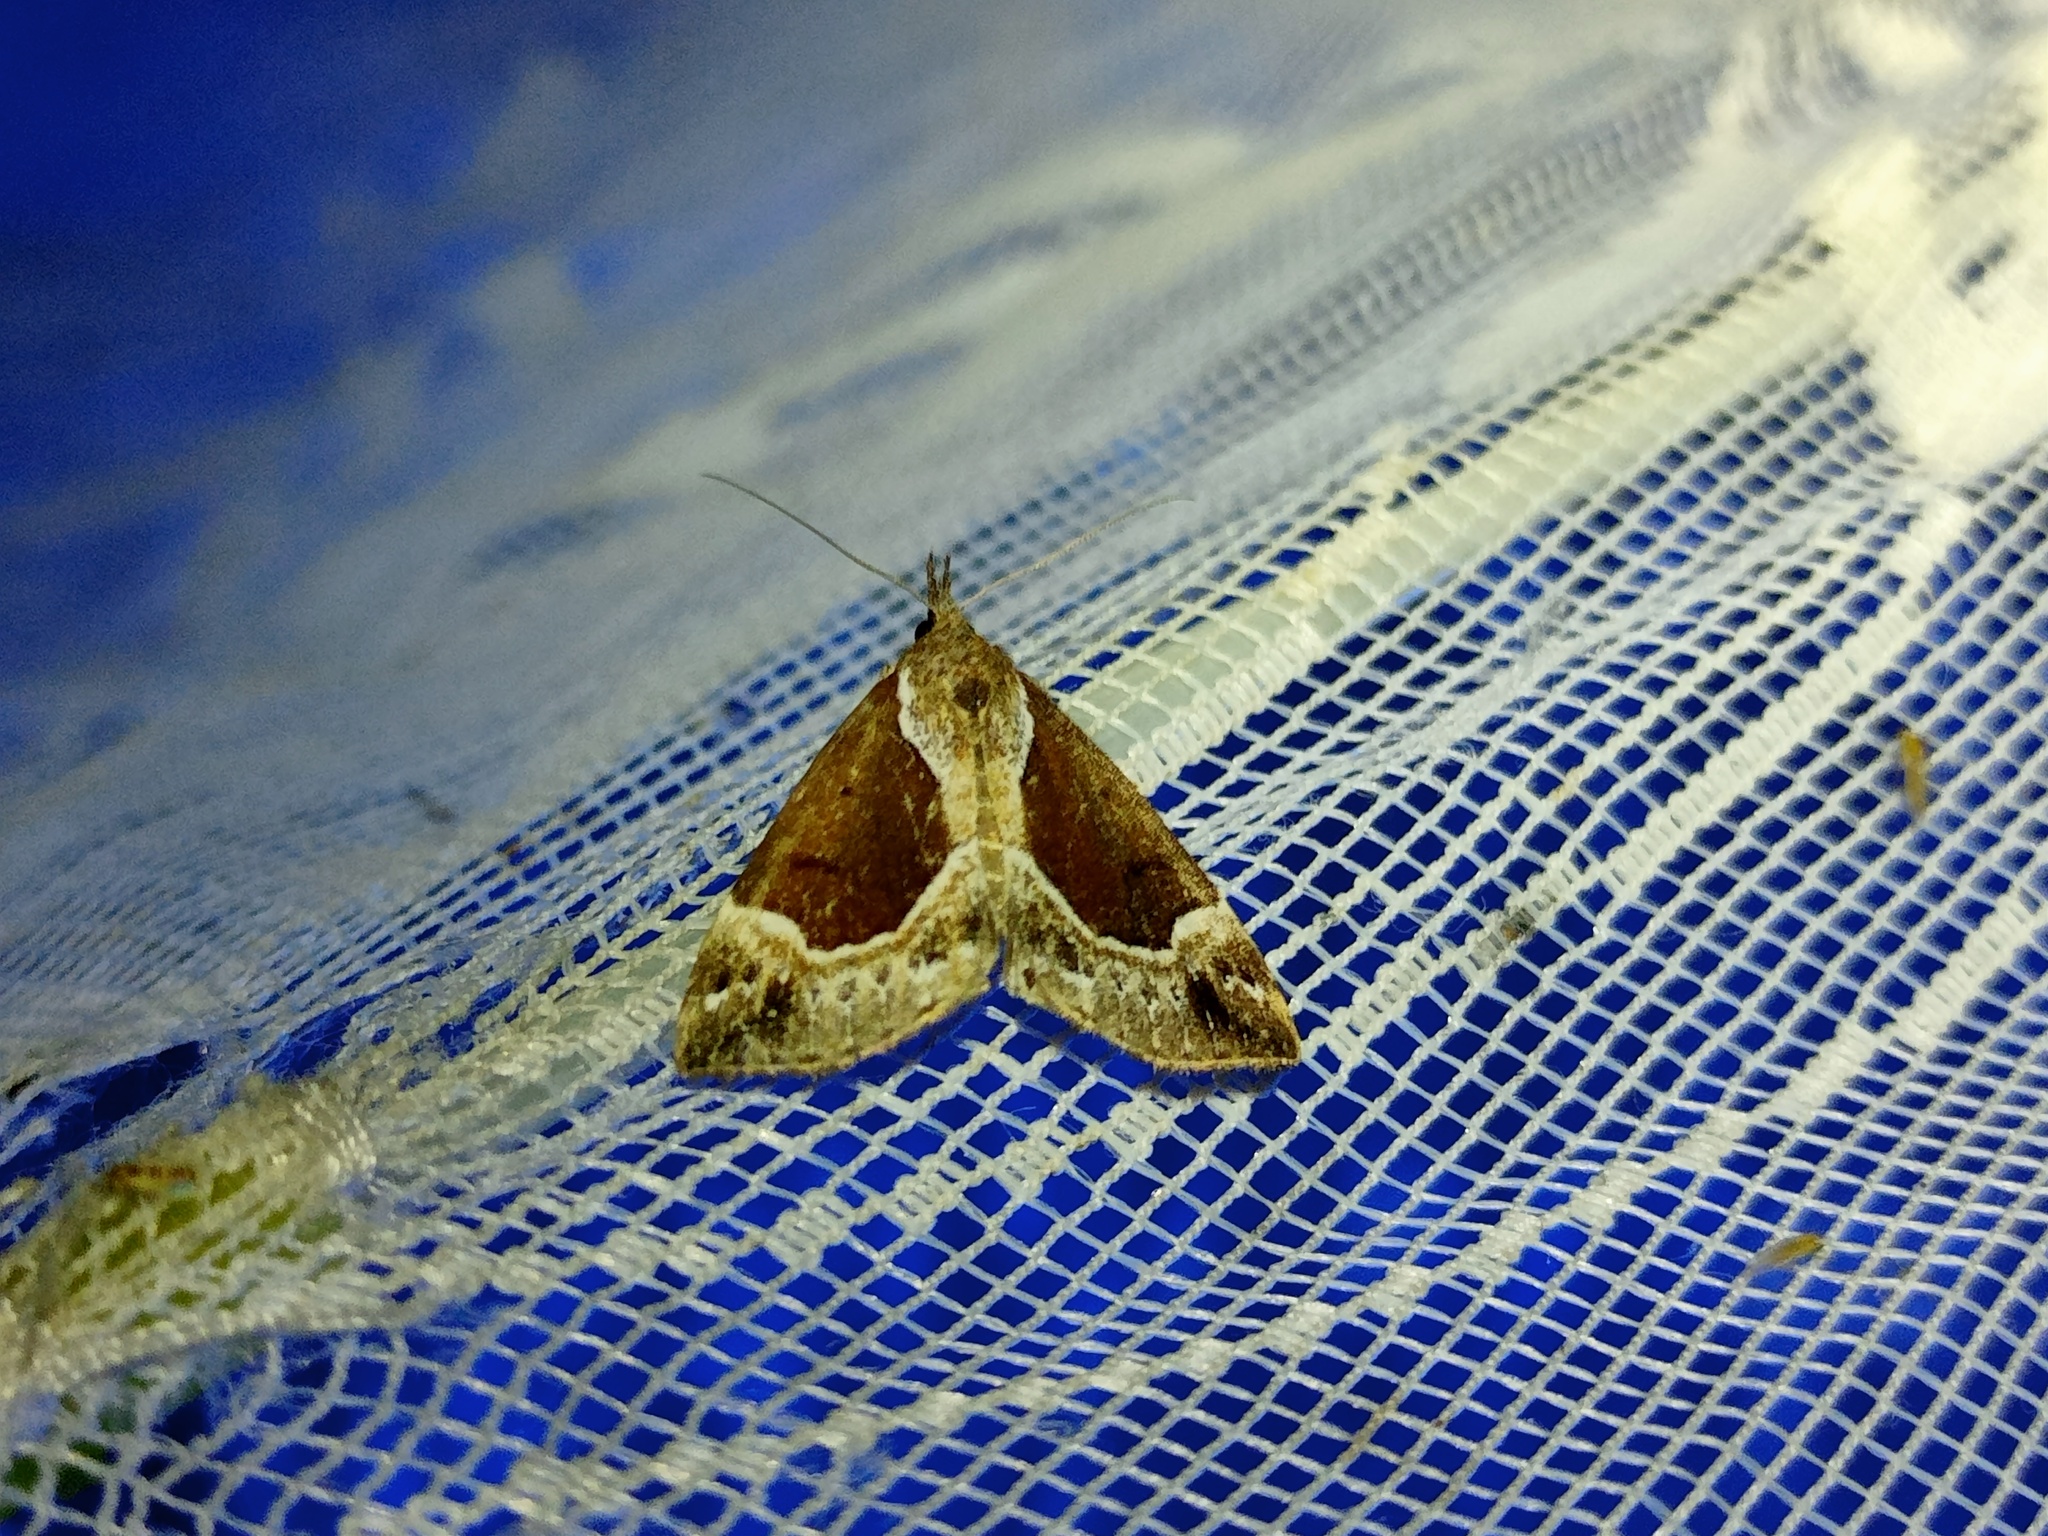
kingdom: Animalia
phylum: Arthropoda
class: Insecta
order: Lepidoptera
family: Erebidae
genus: Hypena
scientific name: Hypena crassalis
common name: Beautiful snout
